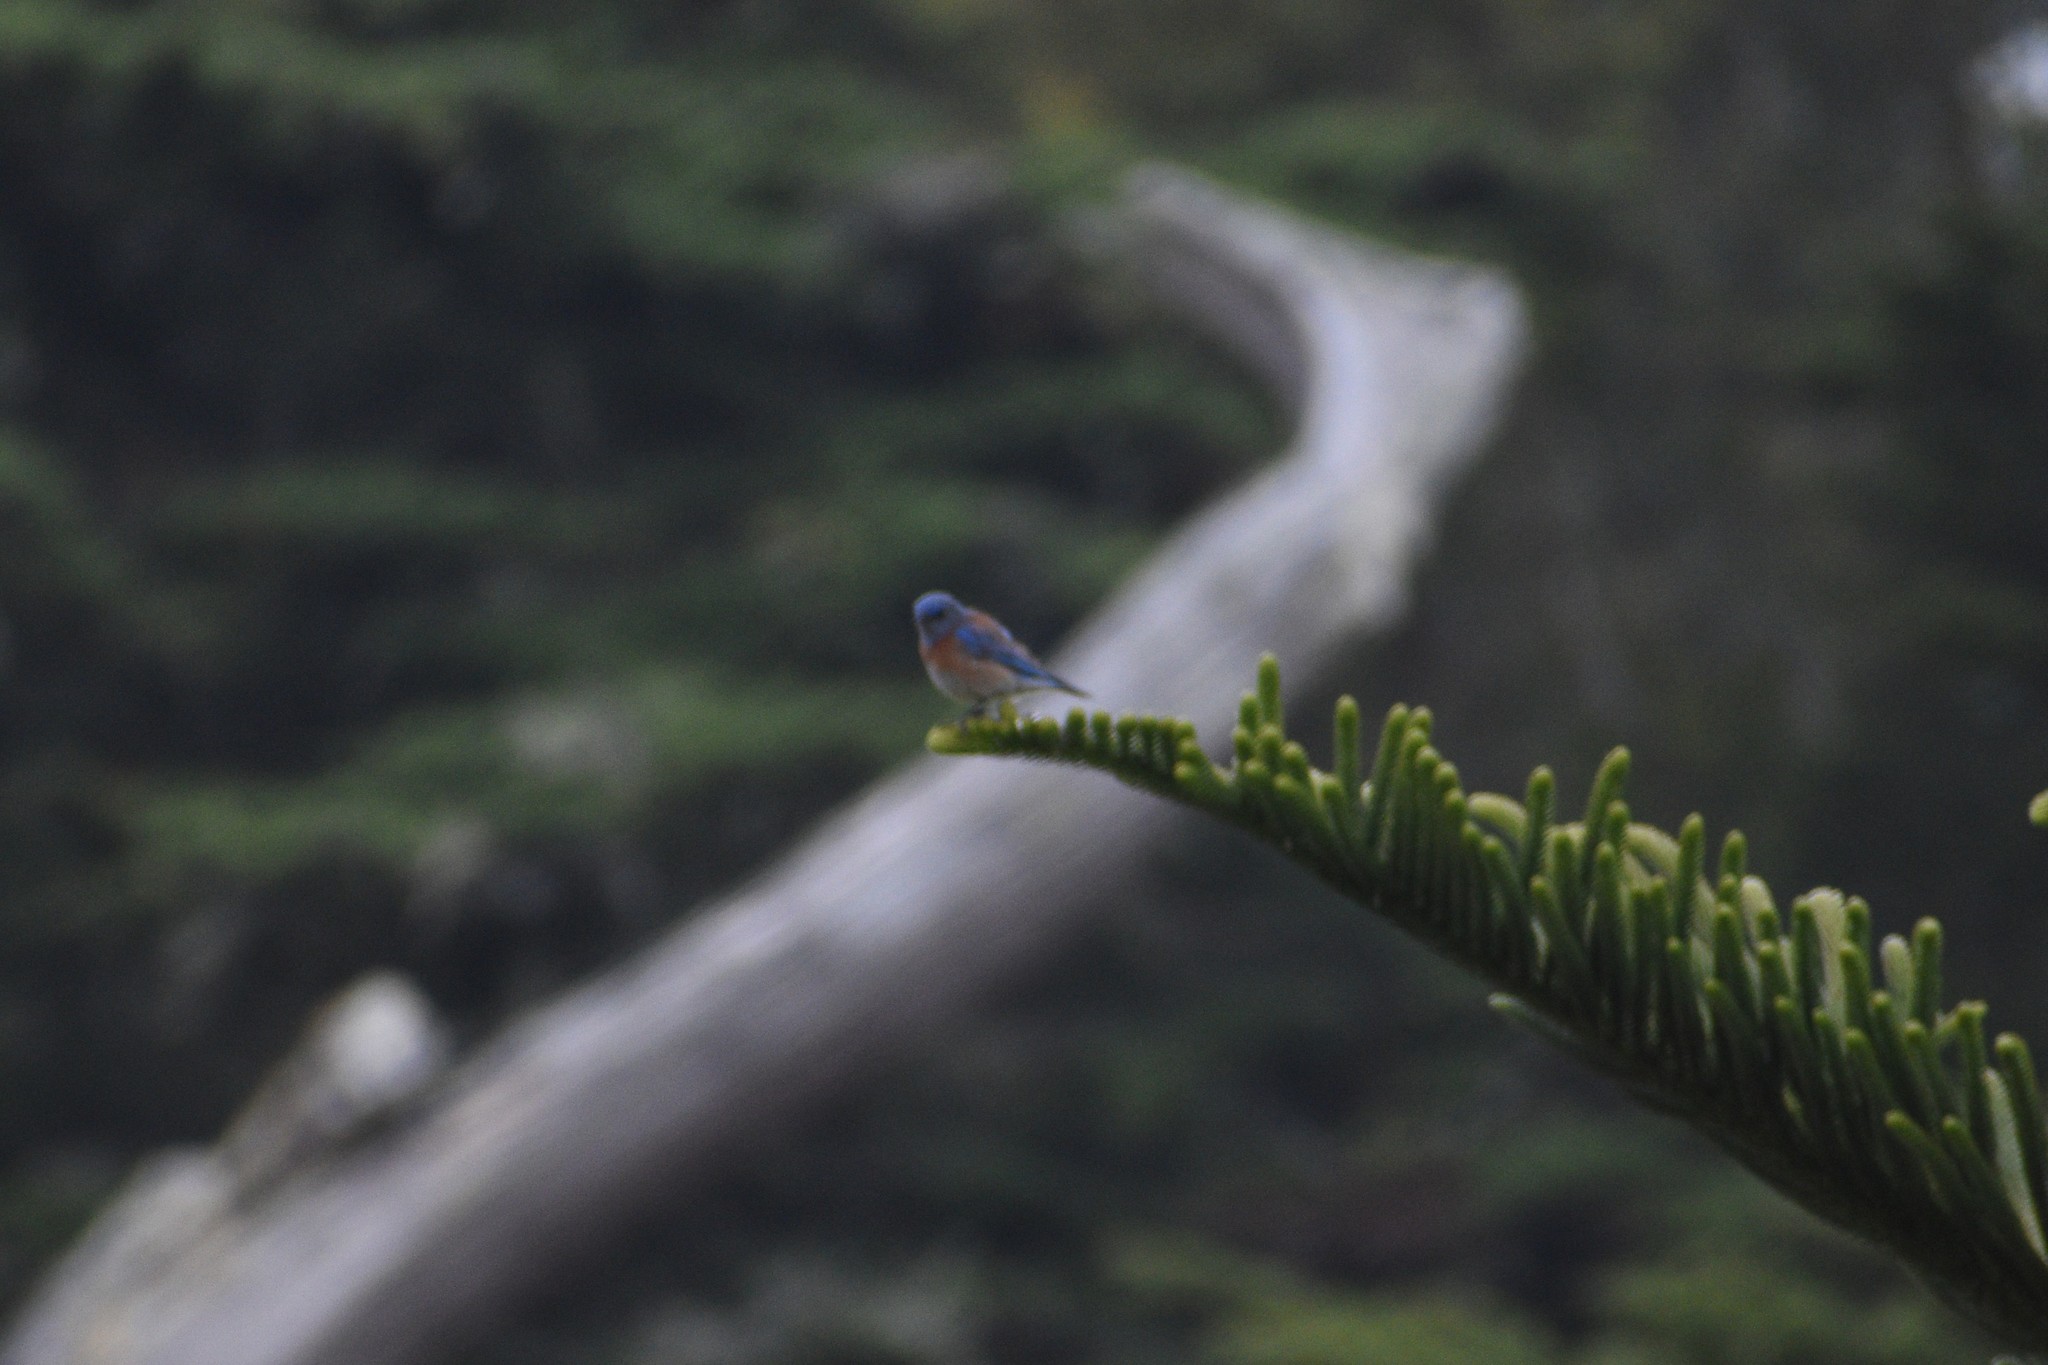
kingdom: Animalia
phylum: Chordata
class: Aves
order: Passeriformes
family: Turdidae
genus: Sialia
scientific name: Sialia mexicana
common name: Western bluebird
